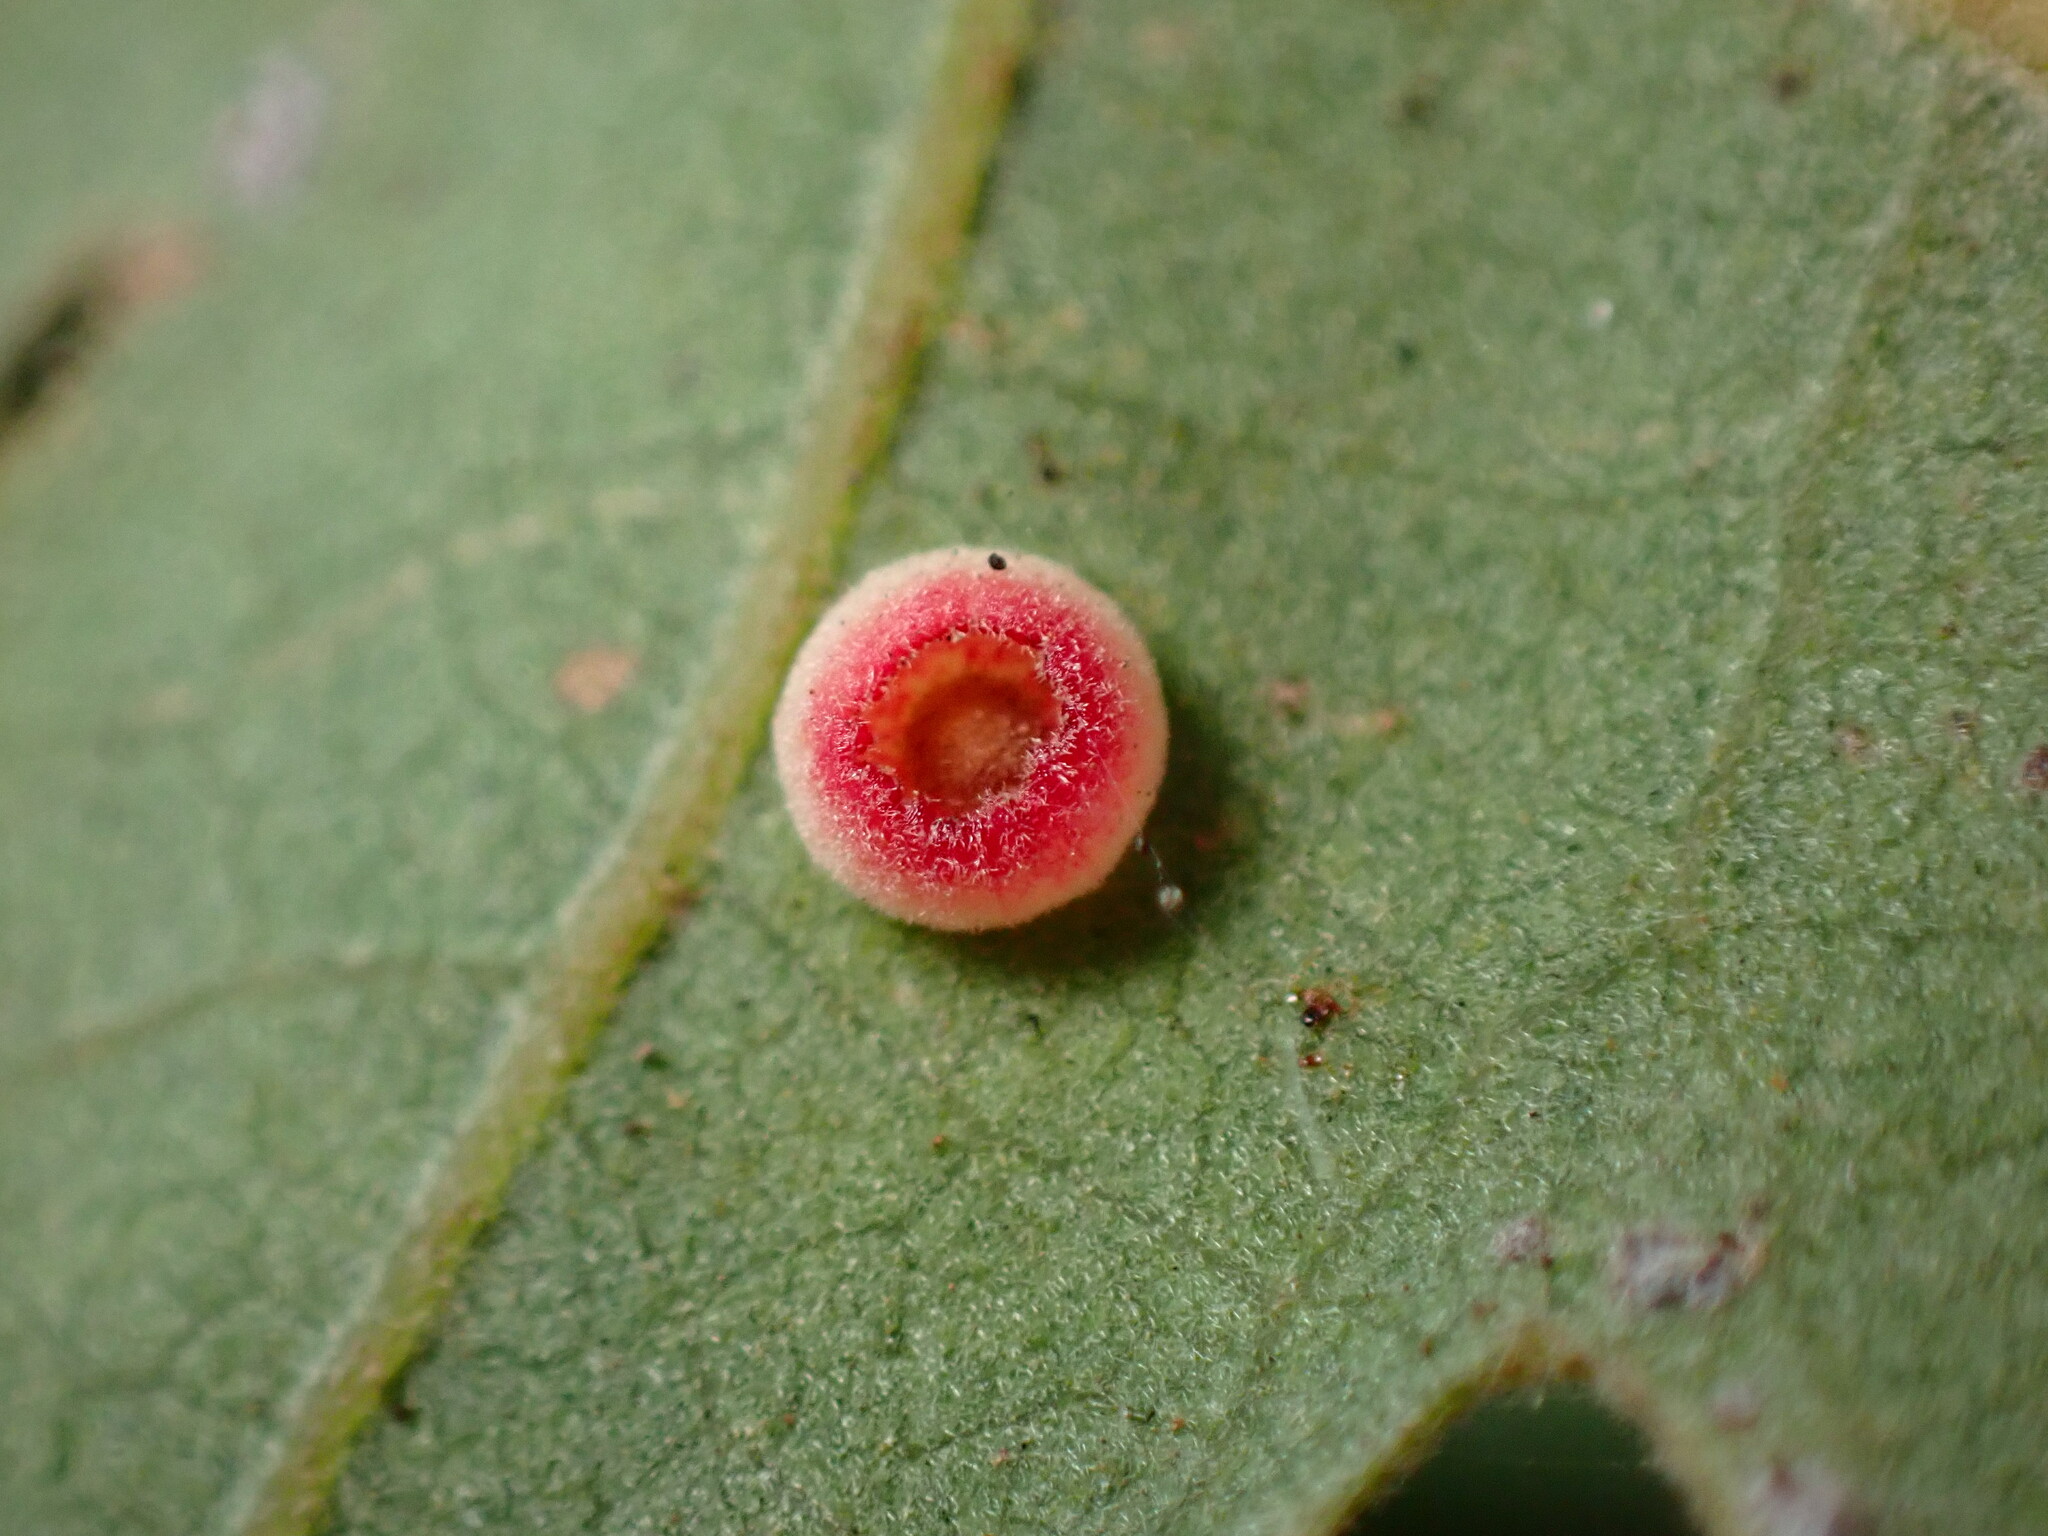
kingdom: Animalia
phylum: Arthropoda
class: Insecta
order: Hymenoptera
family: Cynipidae
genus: Andricus
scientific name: Andricus
